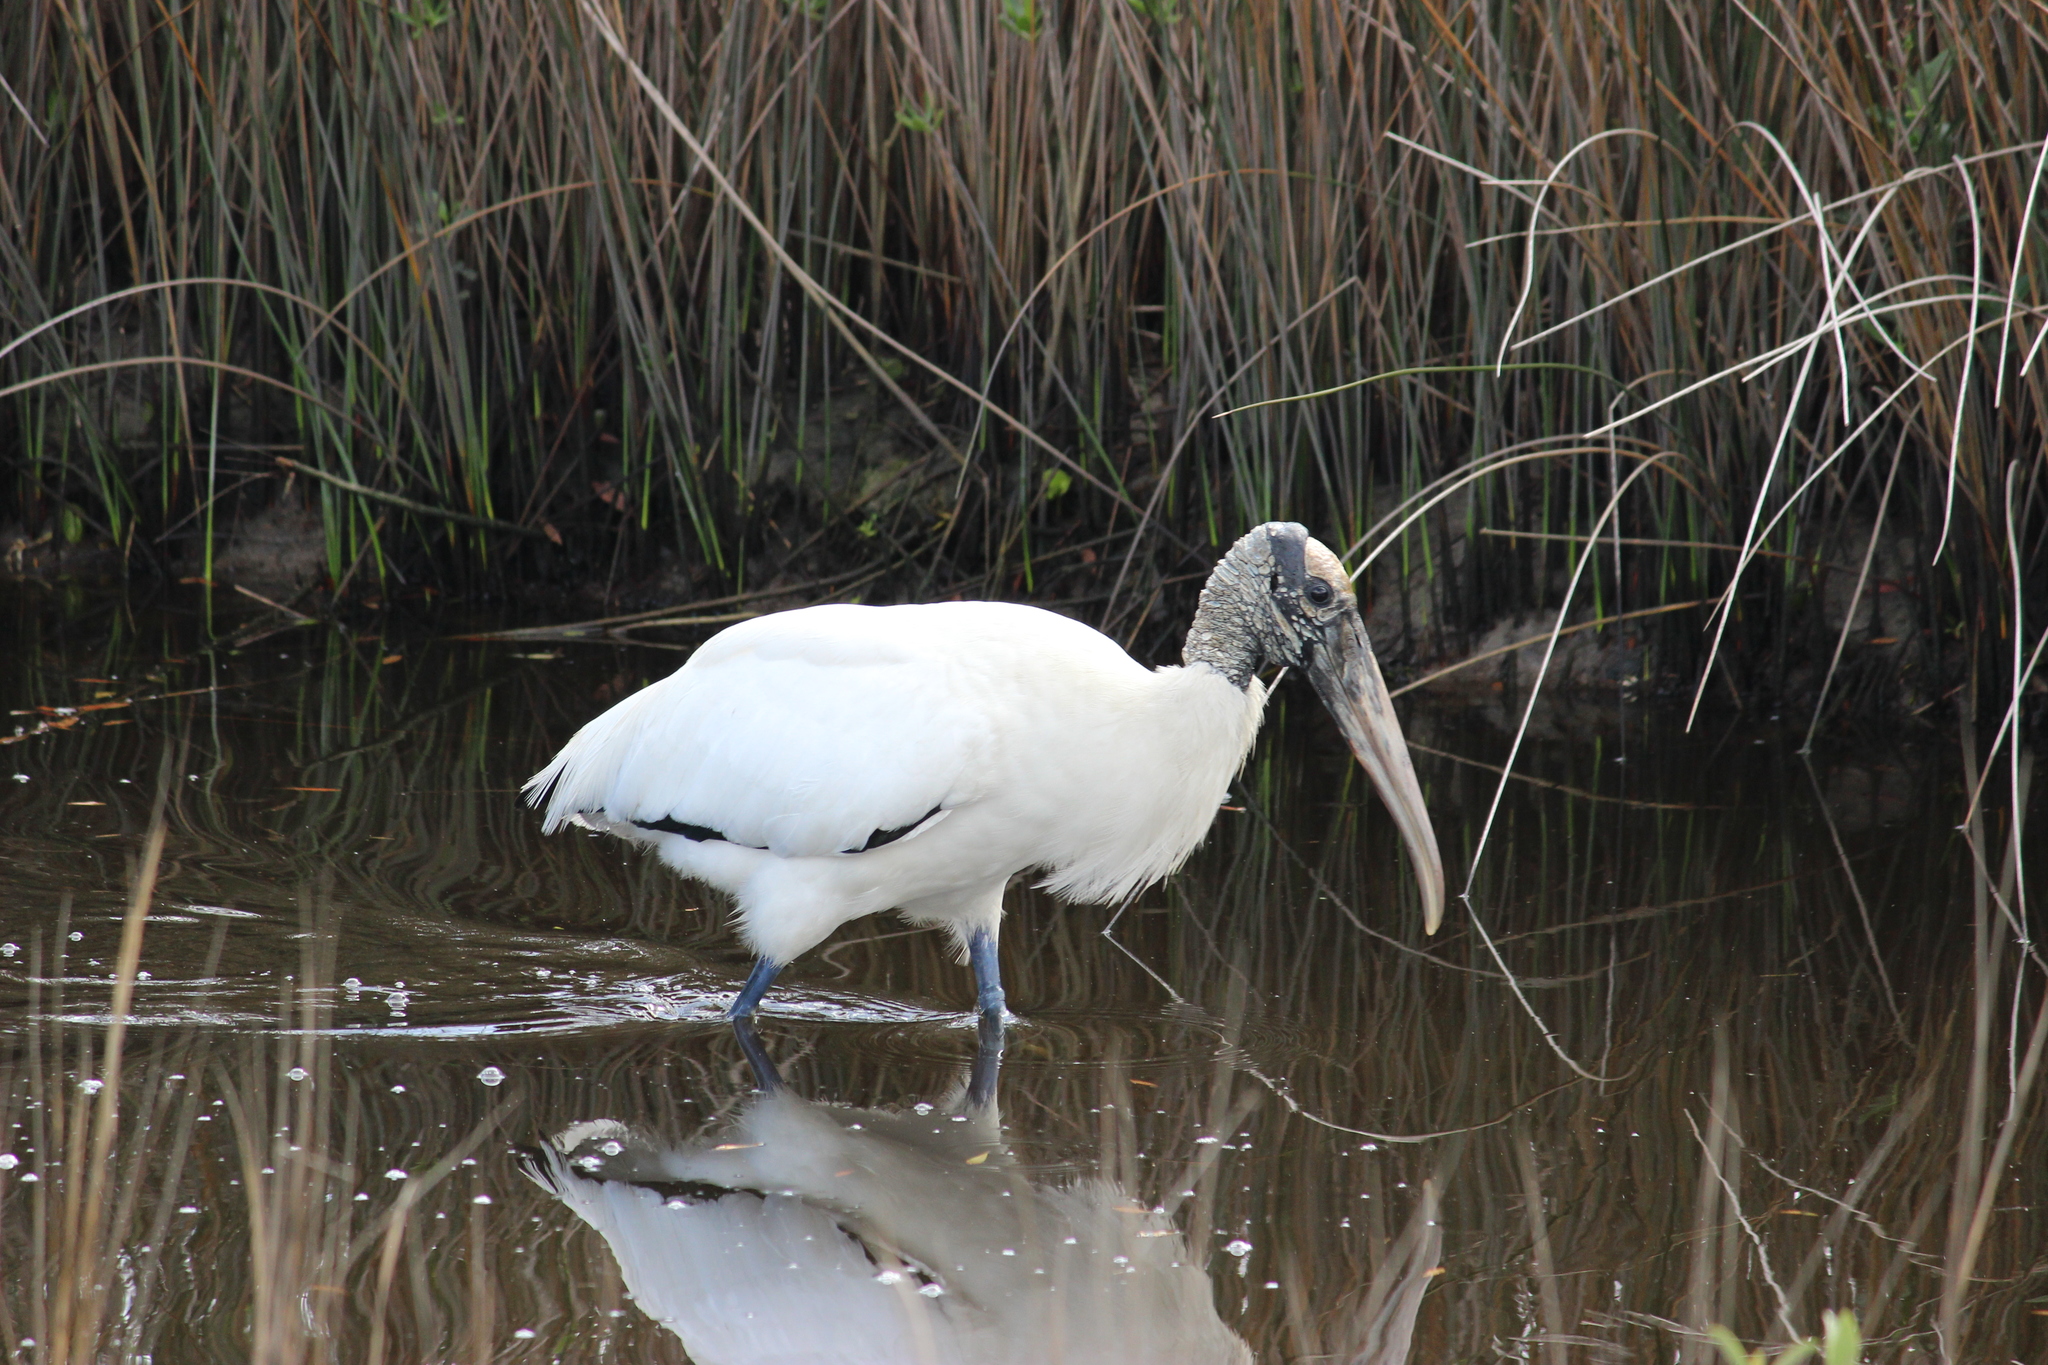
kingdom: Animalia
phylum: Chordata
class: Aves
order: Ciconiiformes
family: Ciconiidae
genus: Mycteria
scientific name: Mycteria americana
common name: Wood stork
